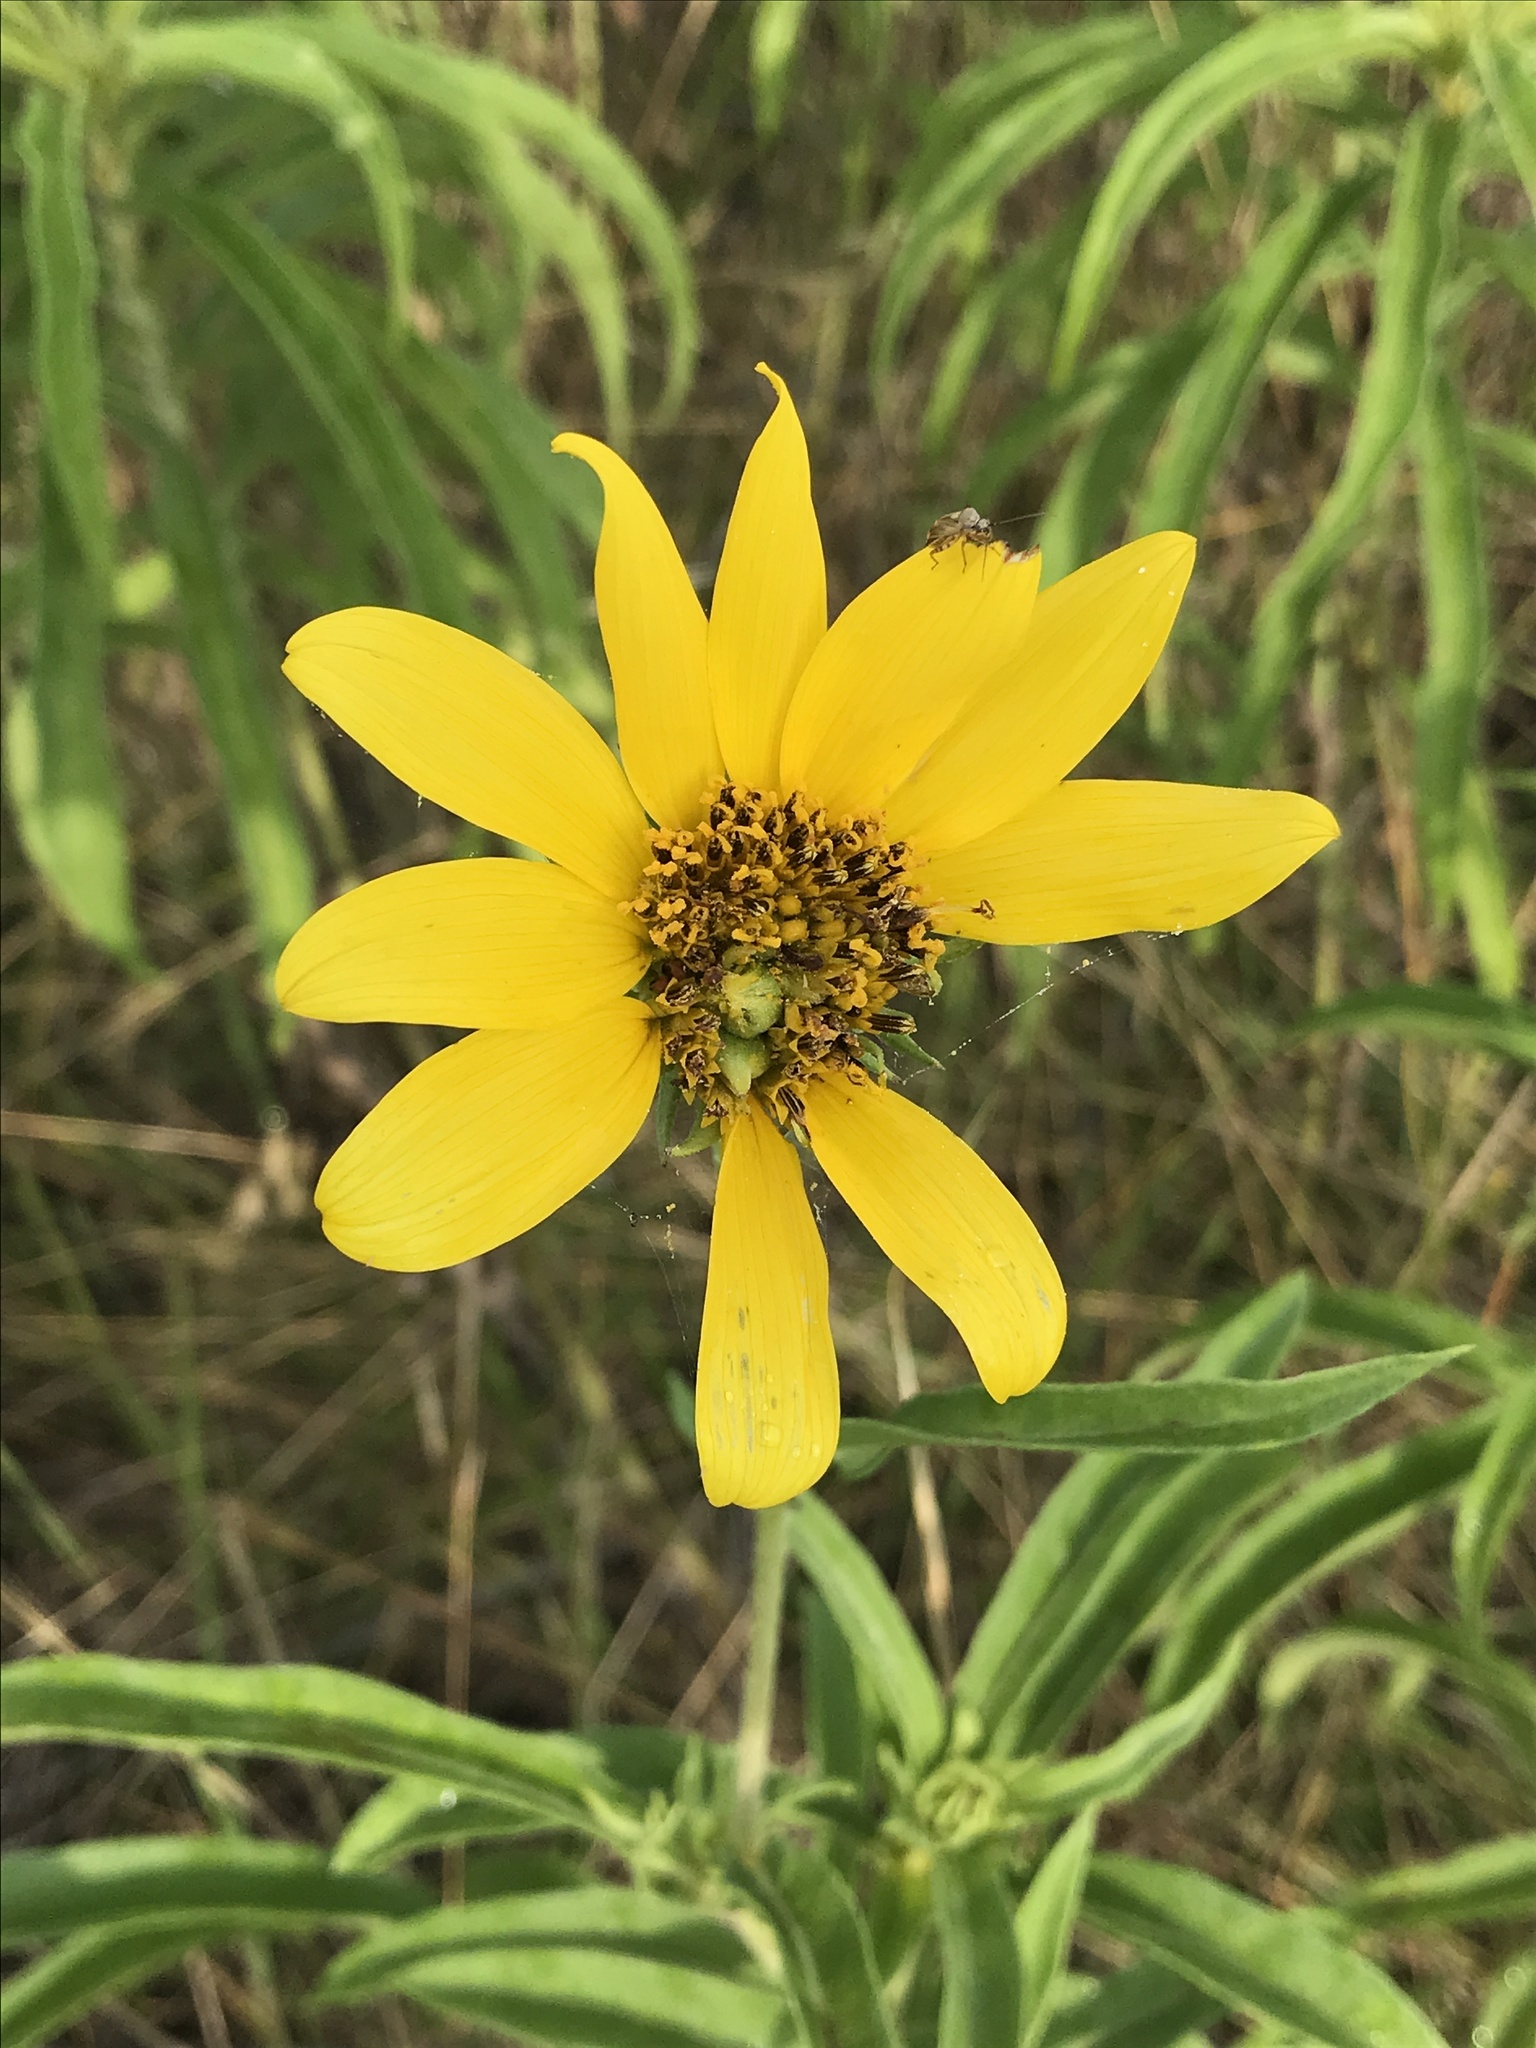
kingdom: Plantae
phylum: Tracheophyta
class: Magnoliopsida
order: Asterales
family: Asteraceae
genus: Helianthus
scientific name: Helianthus maximiliani
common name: Maximilian's sunflower
